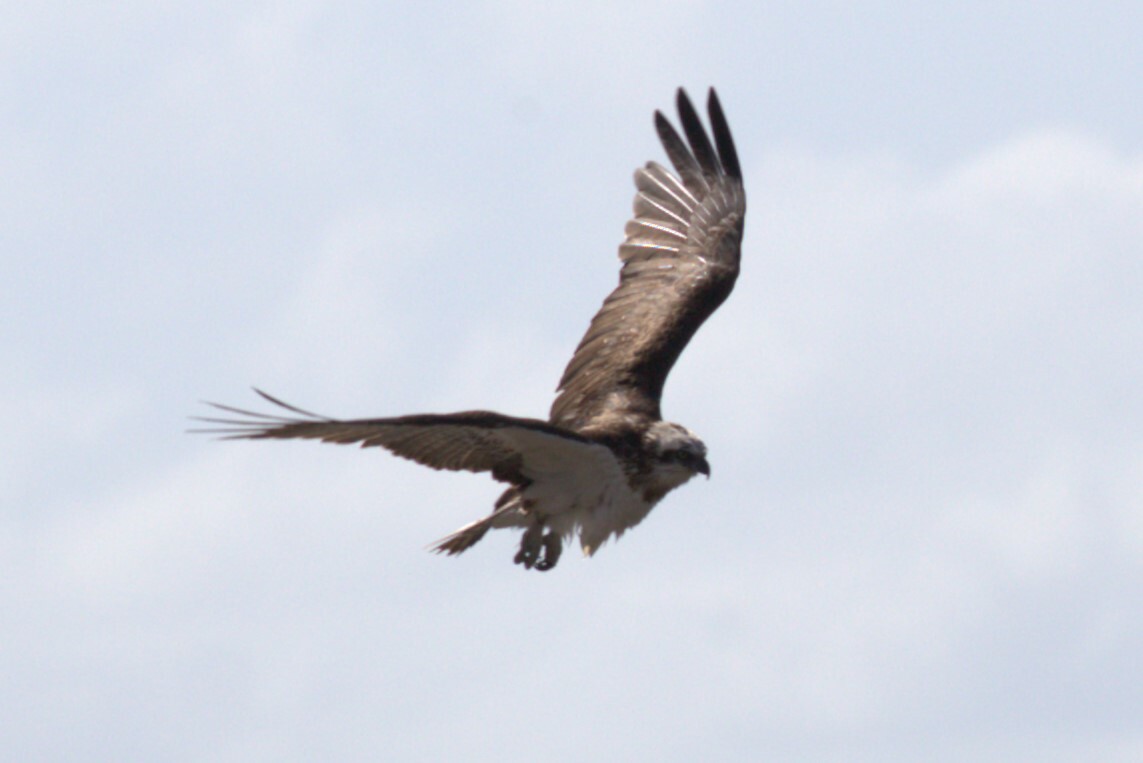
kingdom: Animalia
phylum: Chordata
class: Aves
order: Accipitriformes
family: Pandionidae
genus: Pandion
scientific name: Pandion cristatus
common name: Eastern osprey
